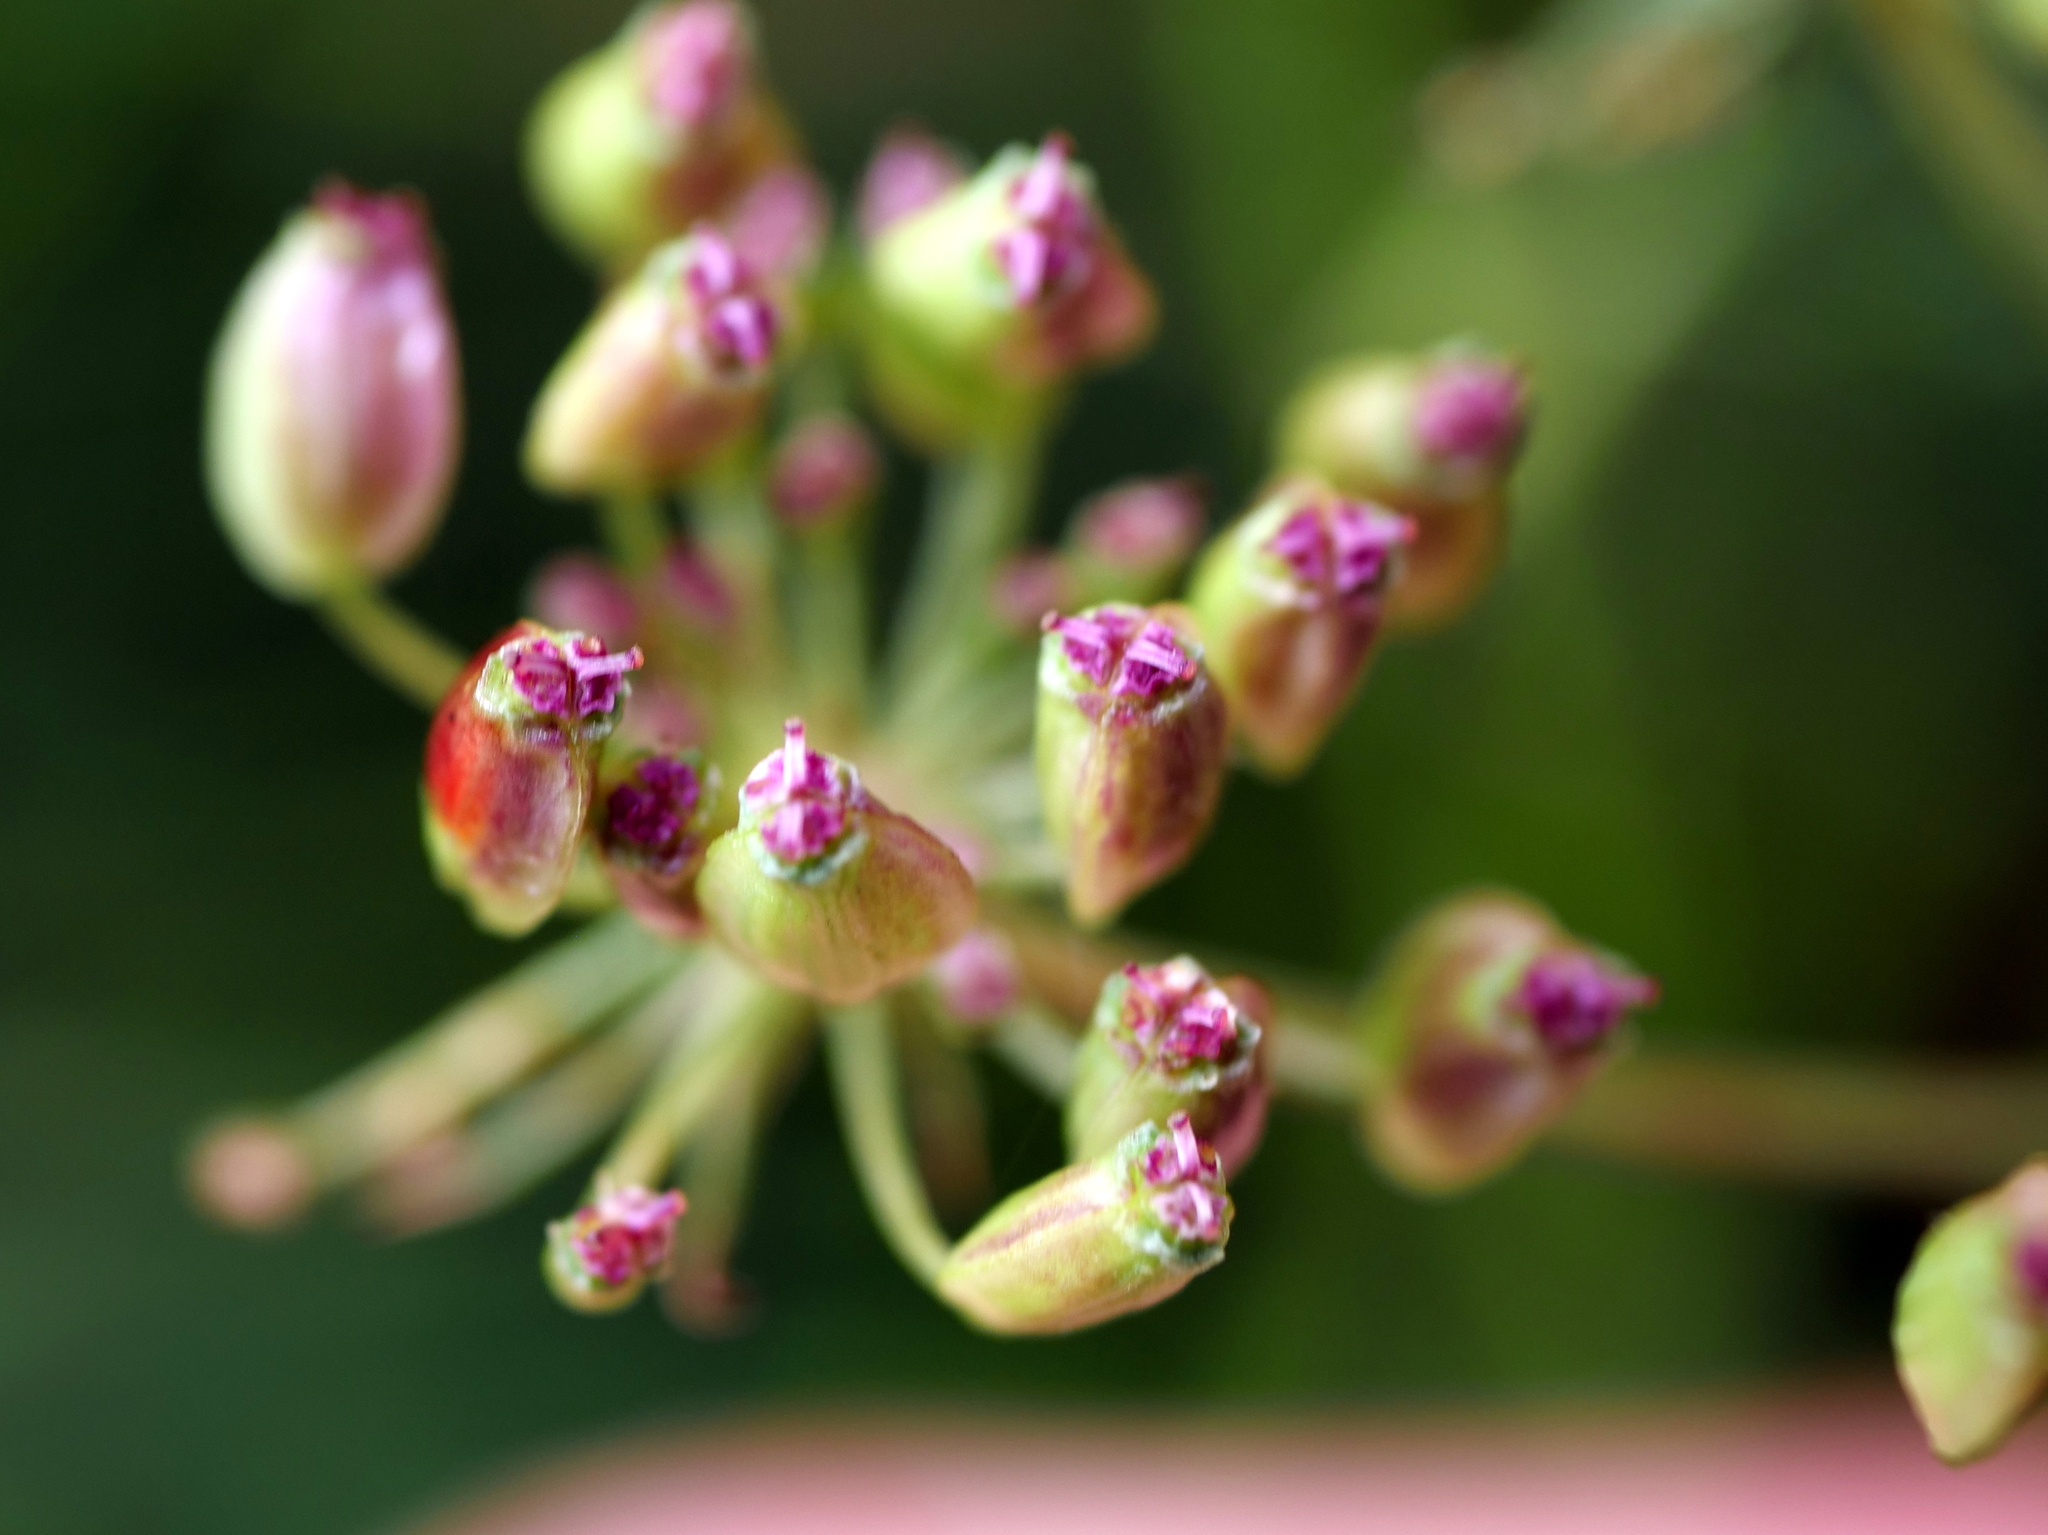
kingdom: Plantae
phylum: Tracheophyta
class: Magnoliopsida
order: Apiales
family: Apiaceae
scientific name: Apiaceae
